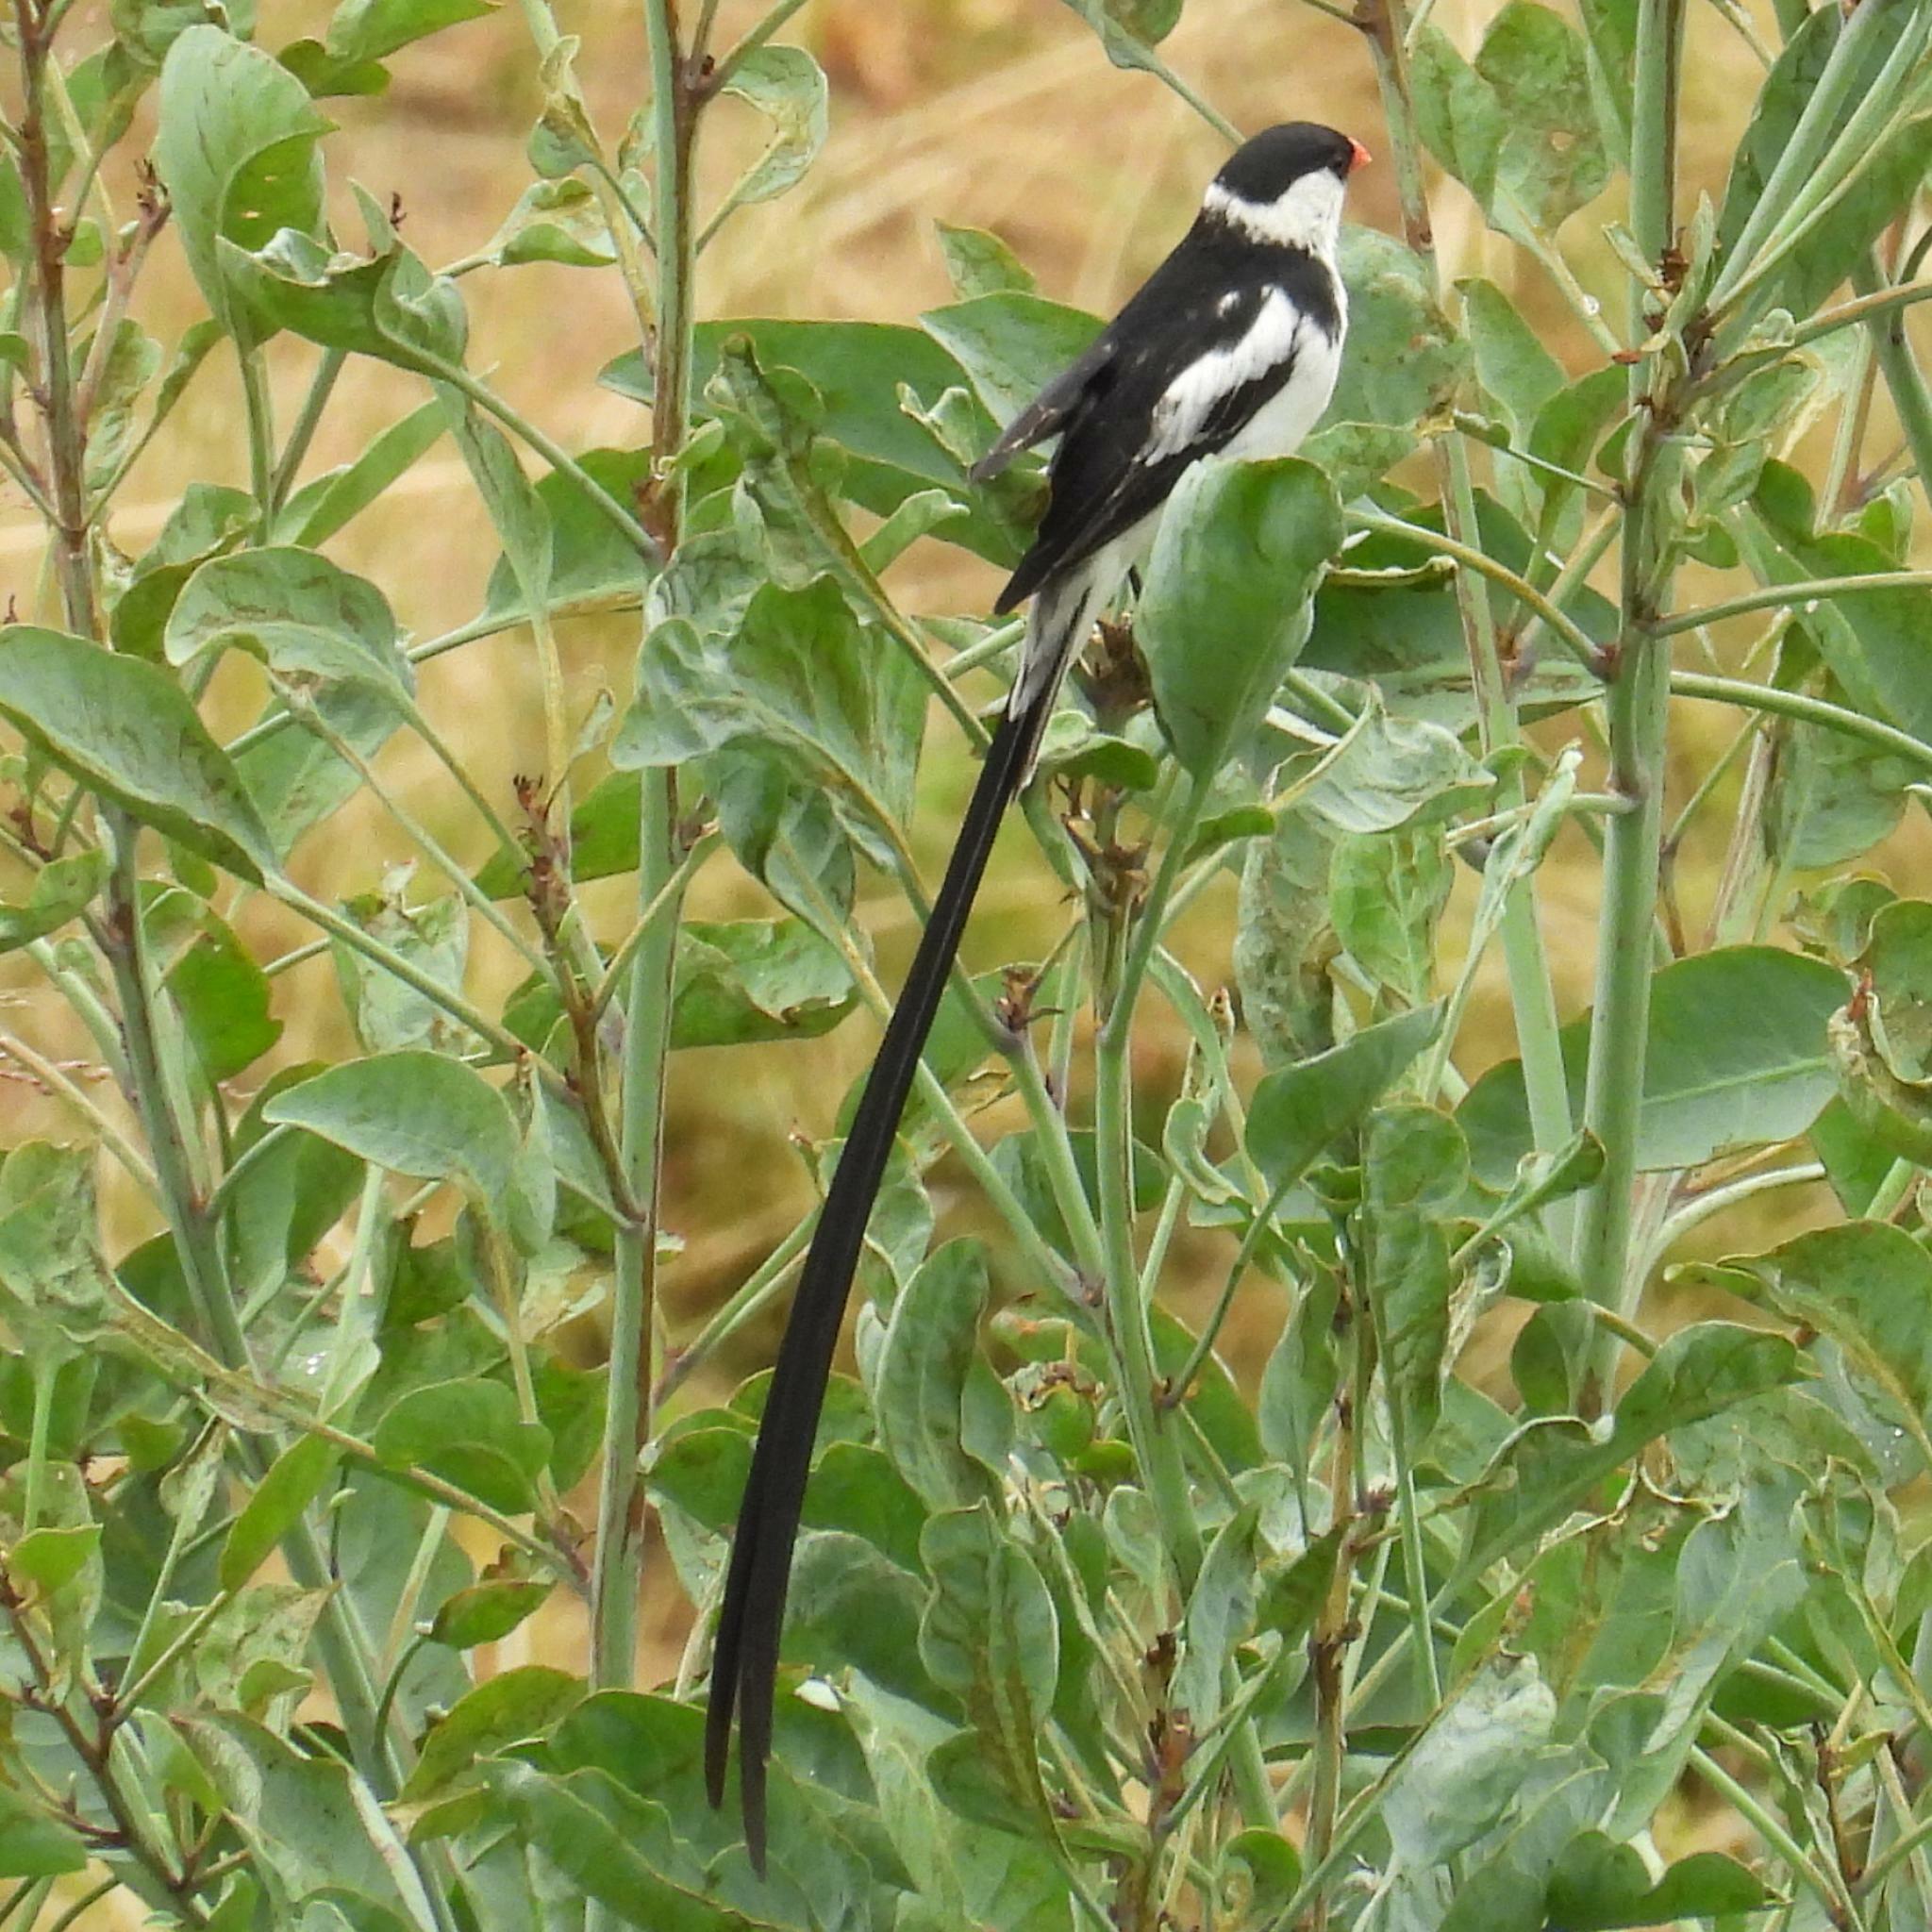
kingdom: Animalia
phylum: Chordata
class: Aves
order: Passeriformes
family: Viduidae
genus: Vidua
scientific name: Vidua macroura
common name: Pin-tailed whydah
